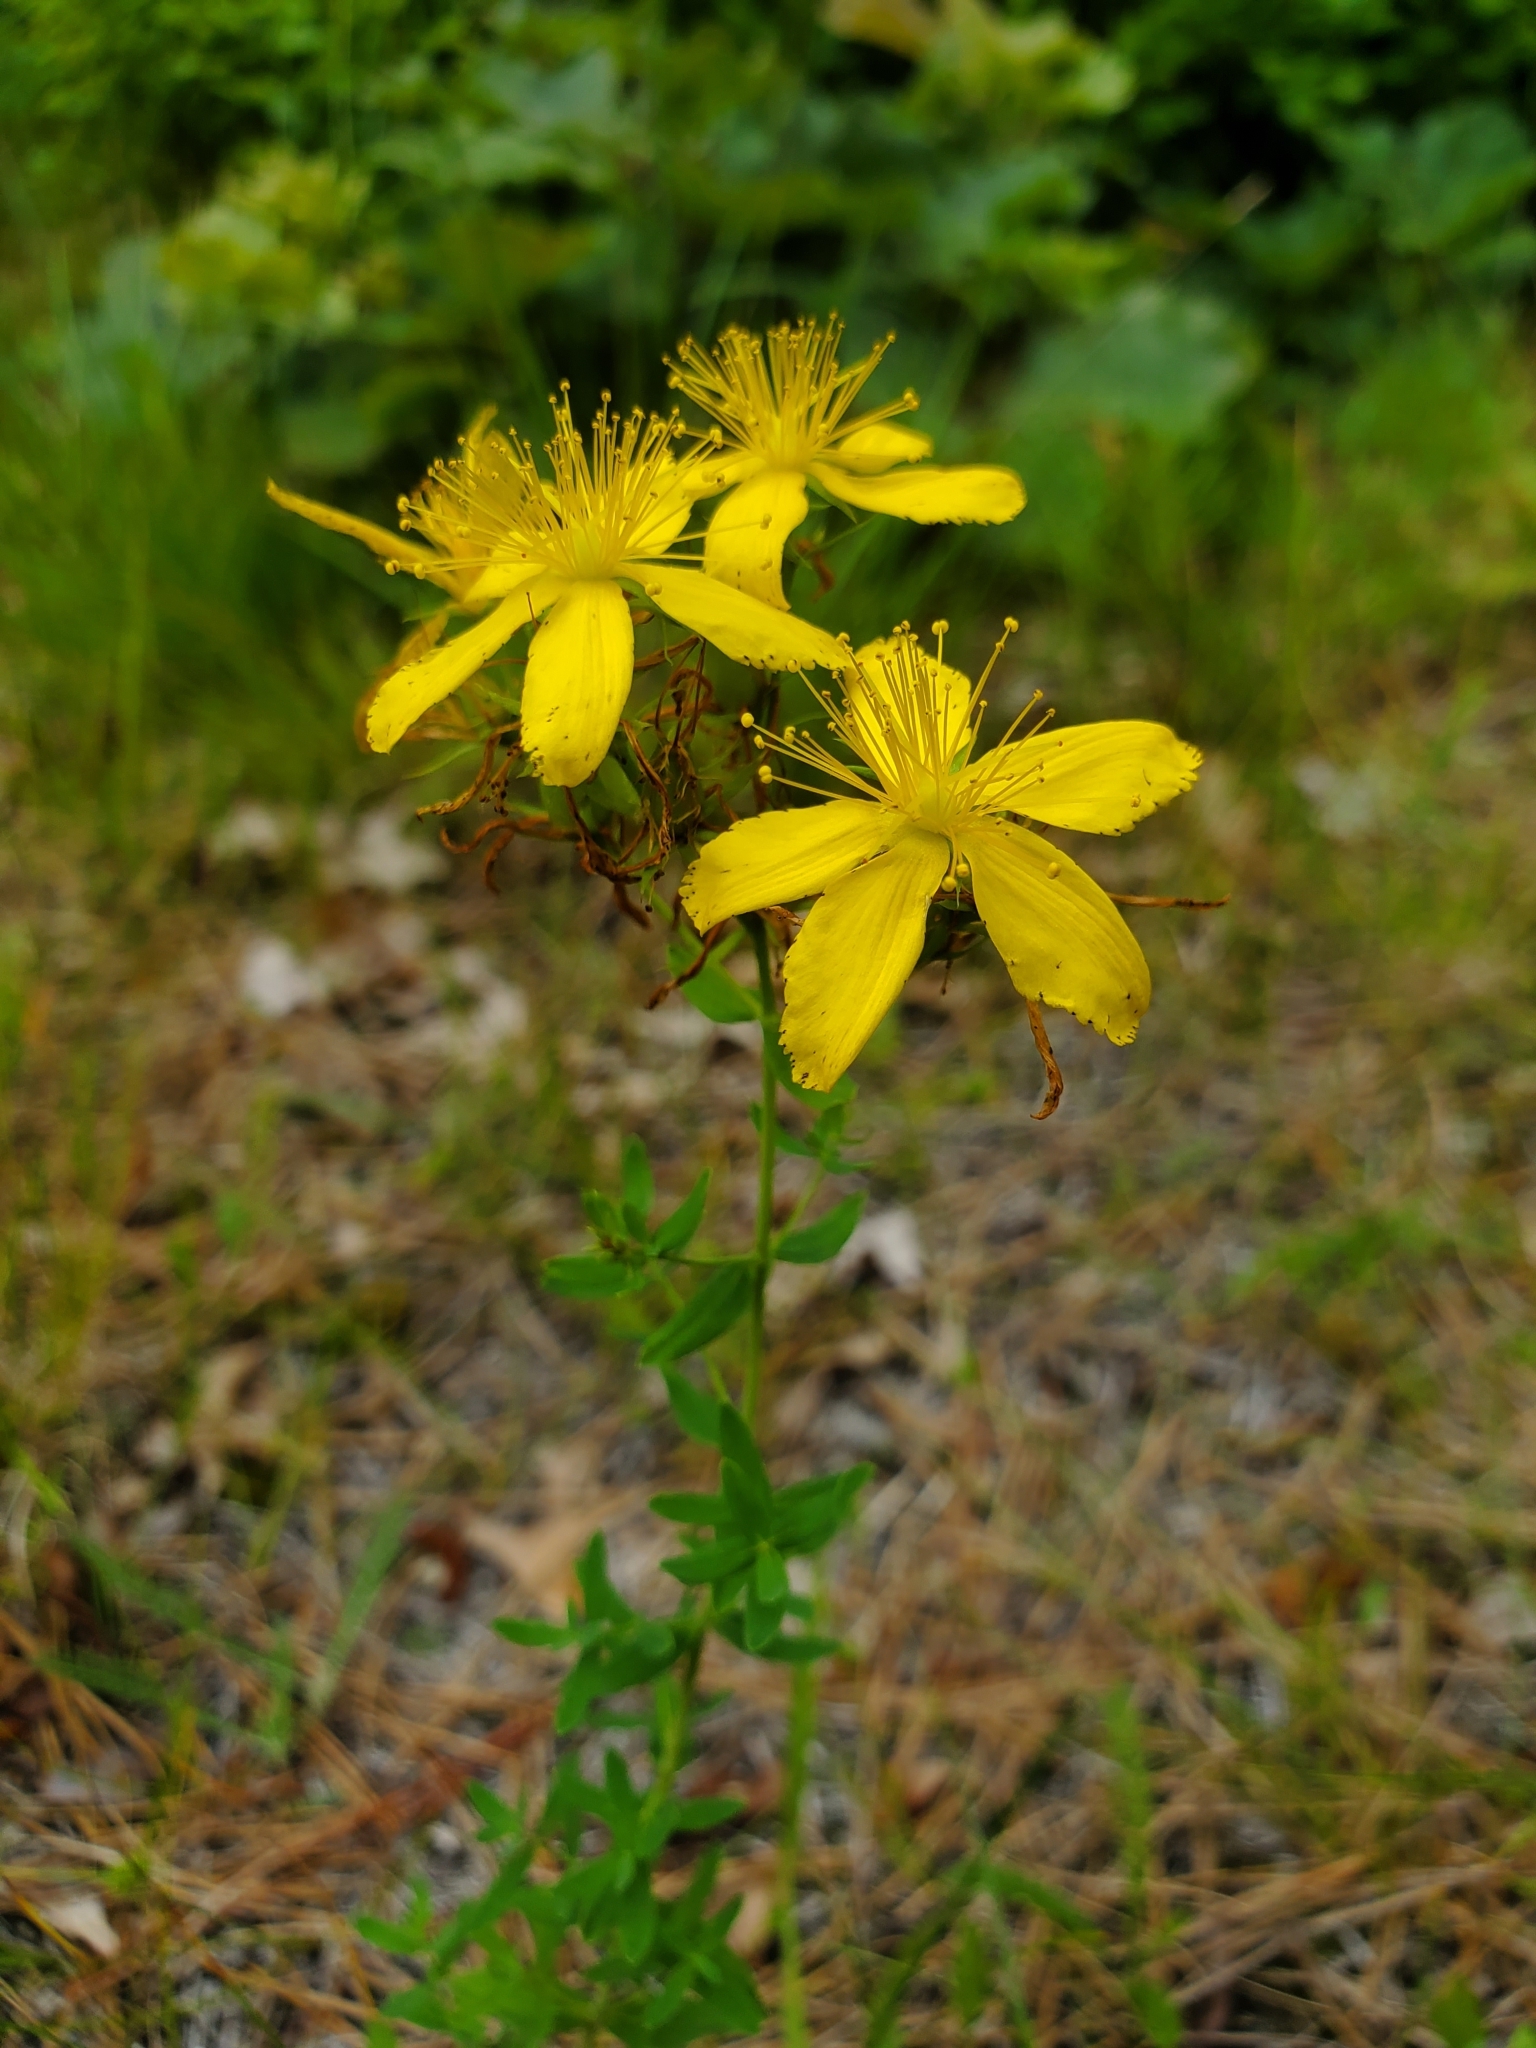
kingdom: Plantae
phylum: Tracheophyta
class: Magnoliopsida
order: Malpighiales
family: Hypericaceae
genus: Hypericum
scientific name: Hypericum perforatum
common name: Common st. johnswort
